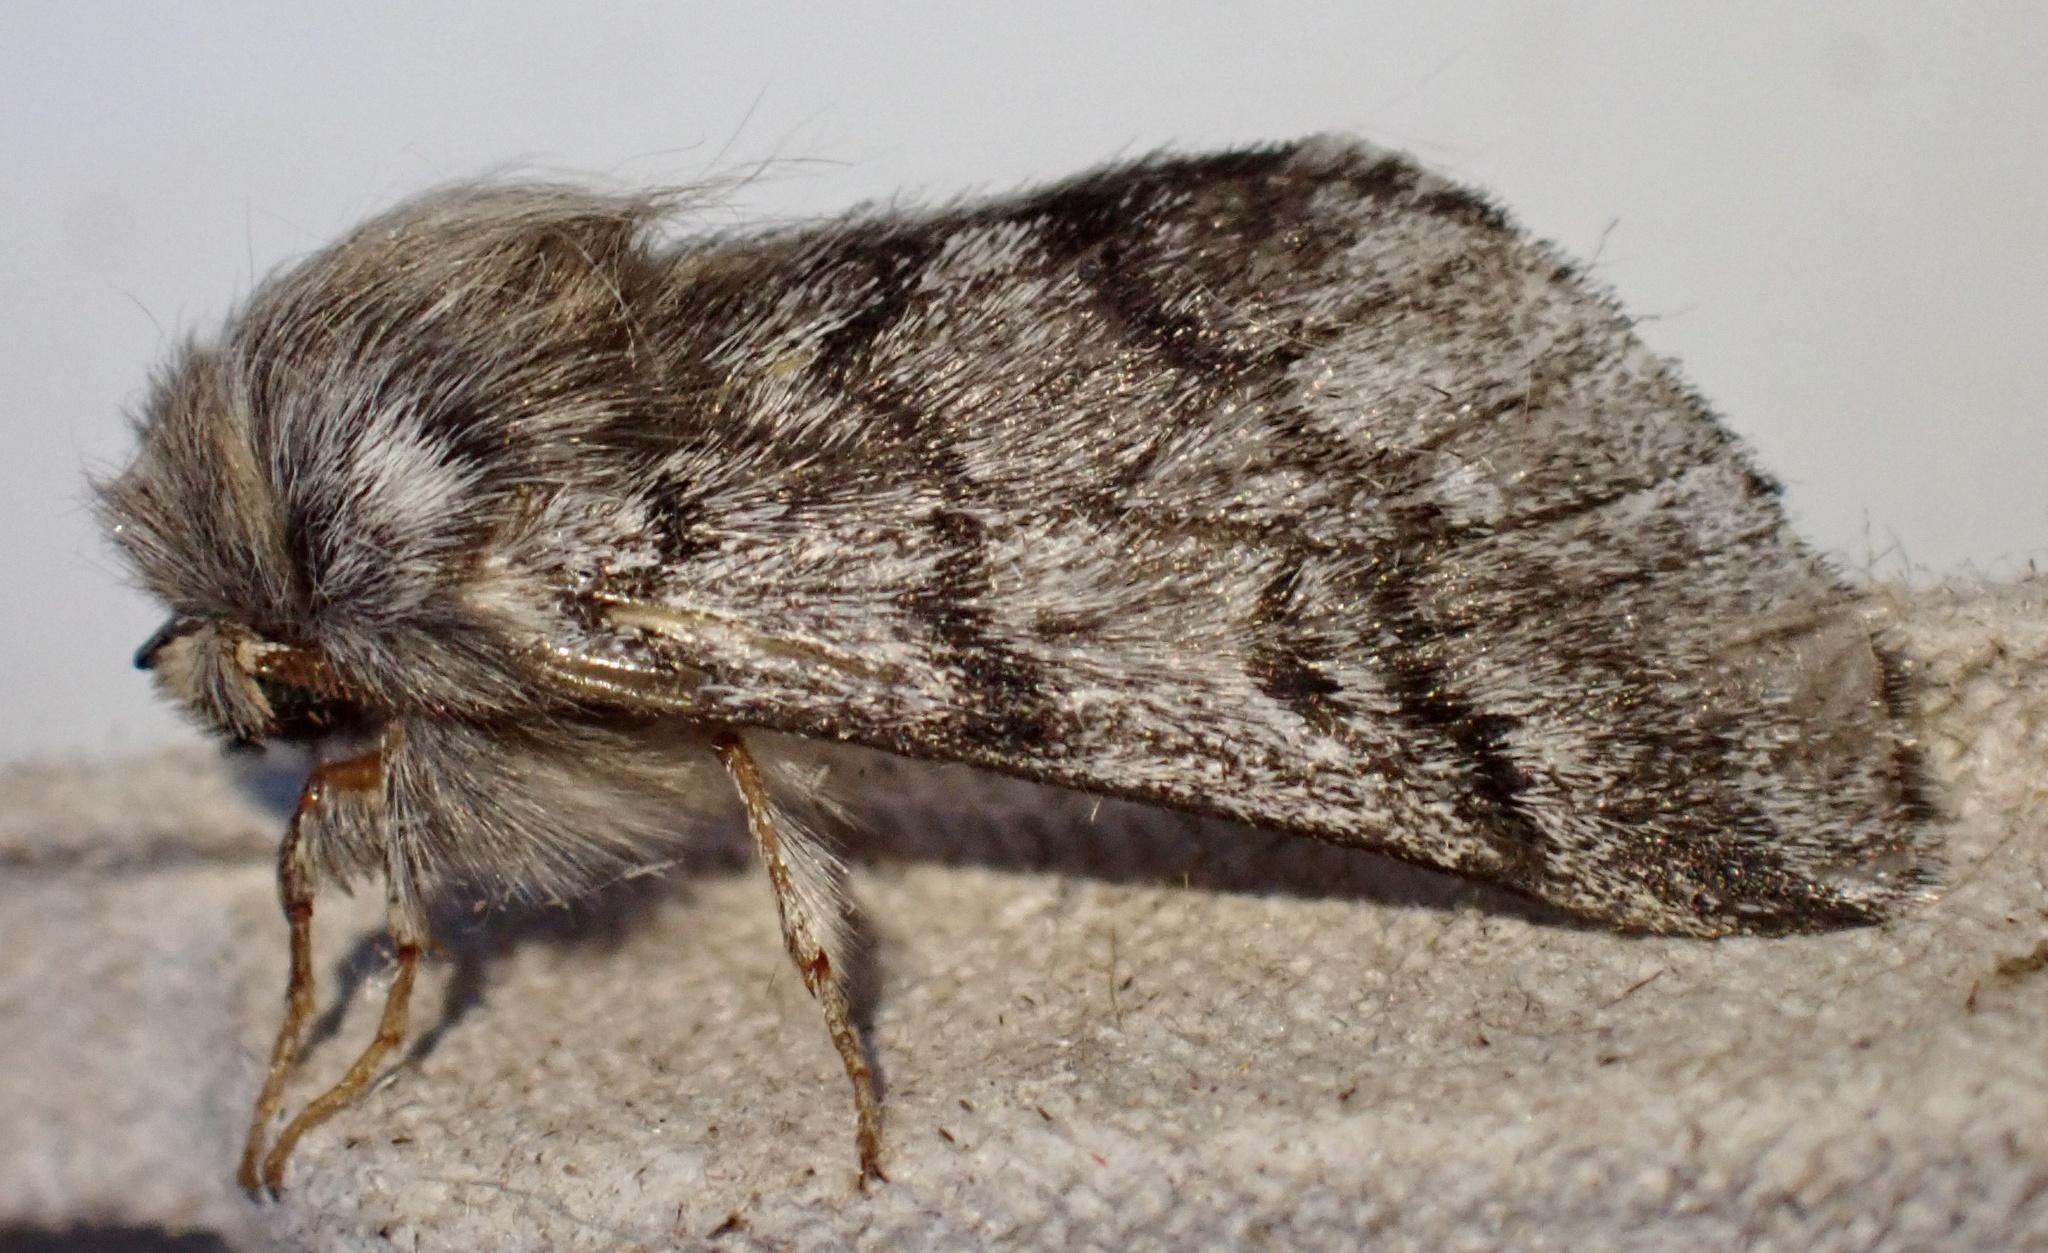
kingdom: Animalia
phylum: Arthropoda
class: Insecta
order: Lepidoptera
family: Notodontidae
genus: Thaumetopoea
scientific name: Thaumetopoea pityocampa
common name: Pine processionary
